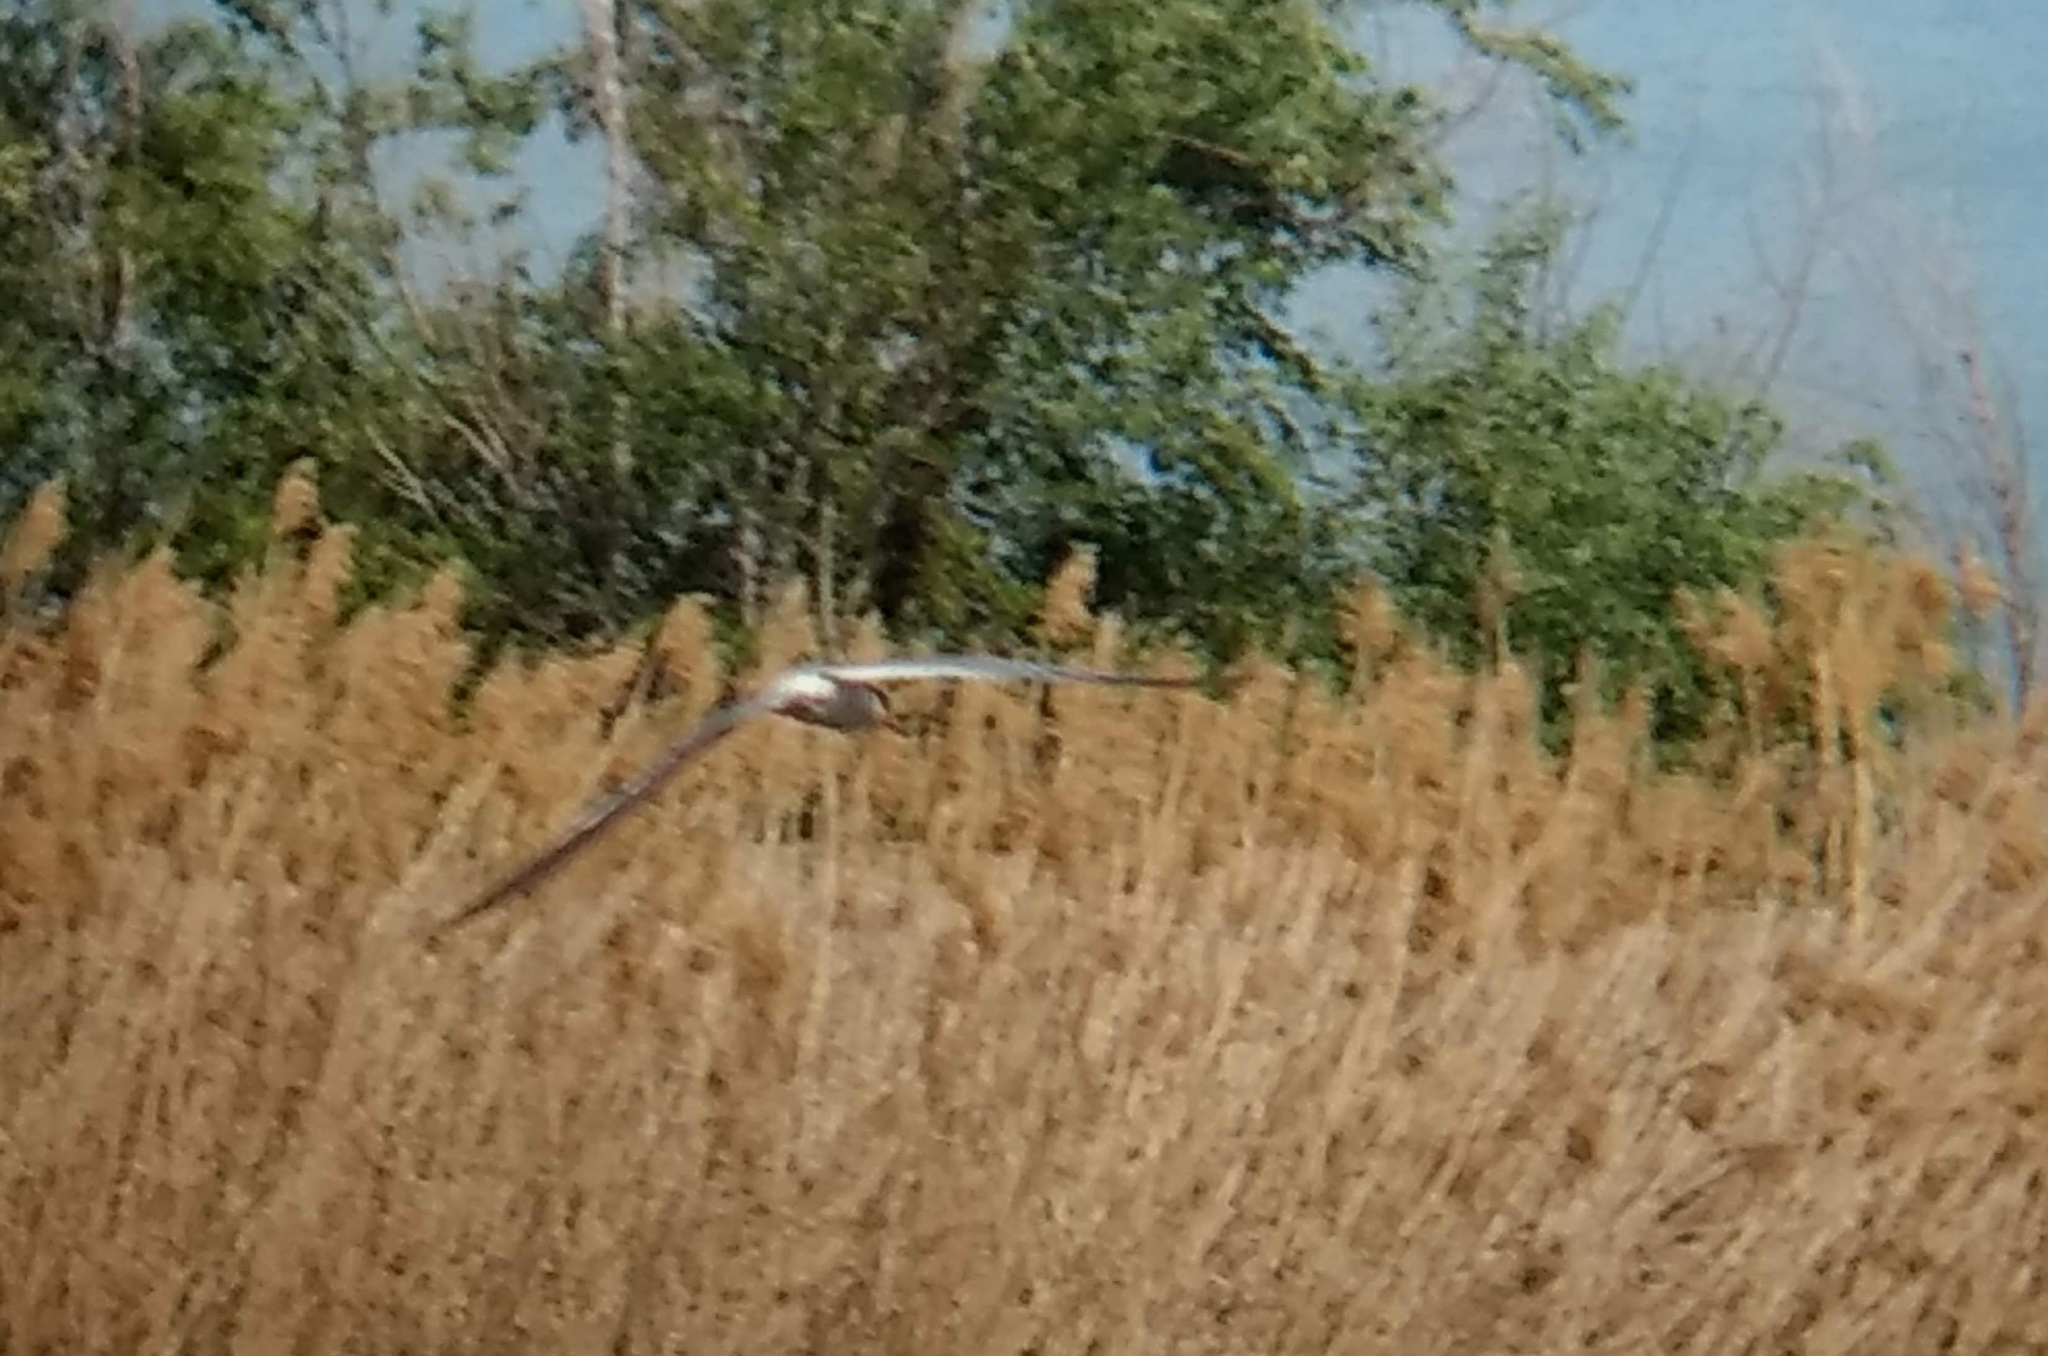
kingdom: Animalia
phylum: Chordata
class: Aves
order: Charadriiformes
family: Laridae
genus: Sterna
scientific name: Sterna forsteri
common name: Forster's tern
